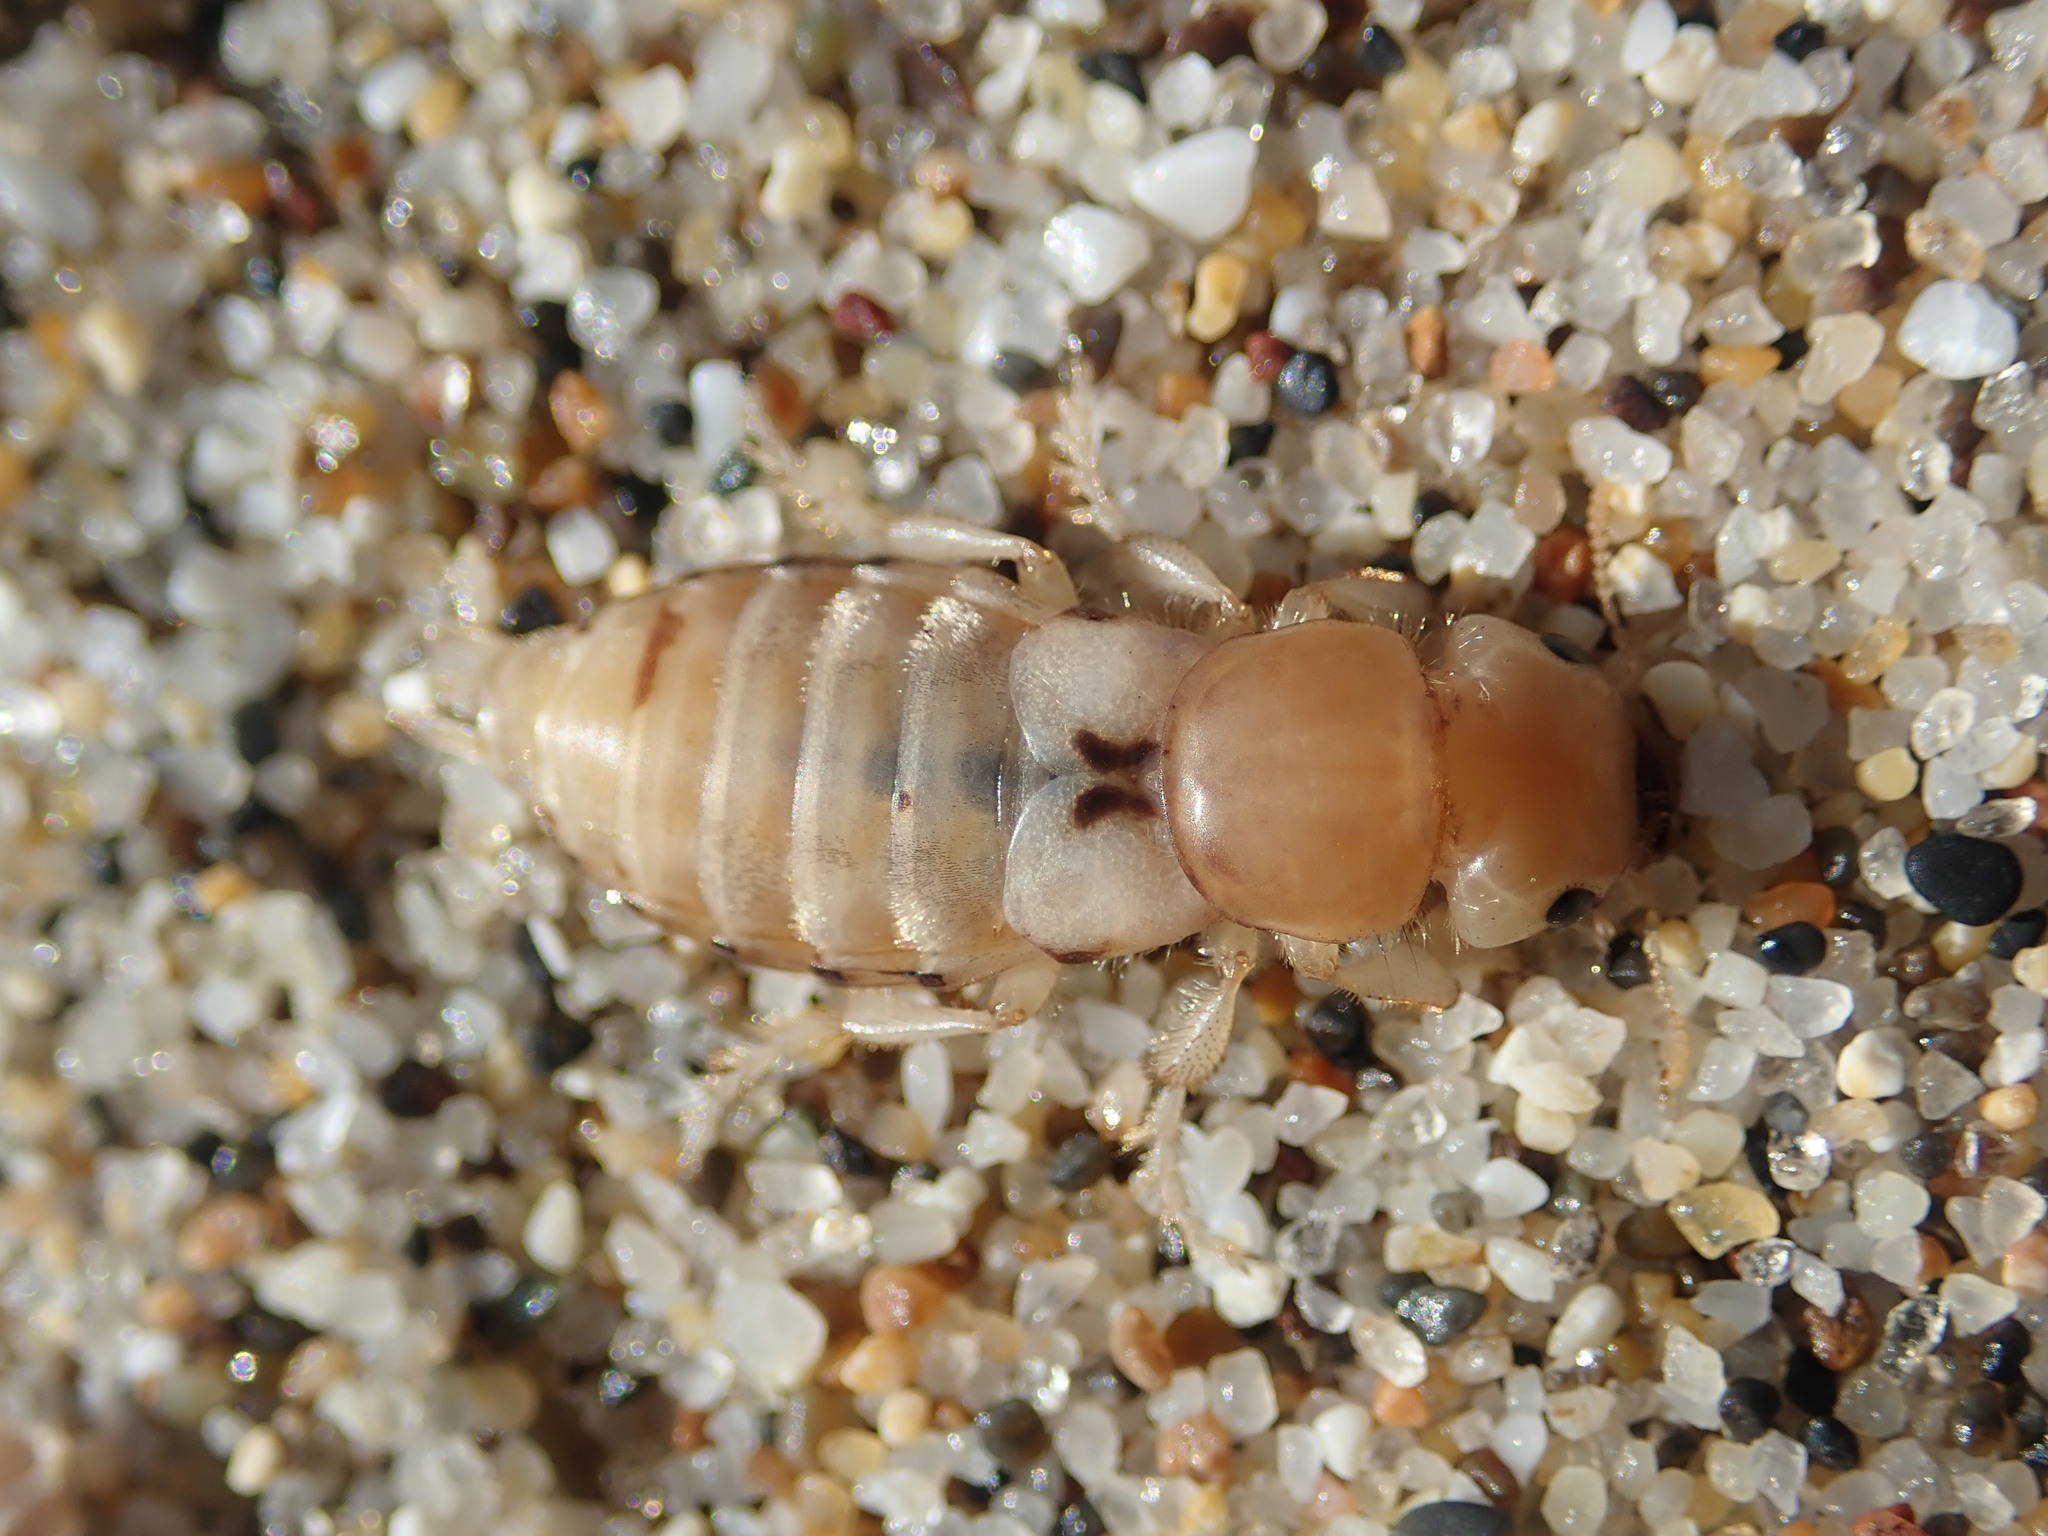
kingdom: Animalia
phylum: Arthropoda
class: Insecta
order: Coleoptera
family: Staphylinidae
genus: Thinopinus
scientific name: Thinopinus pictus
